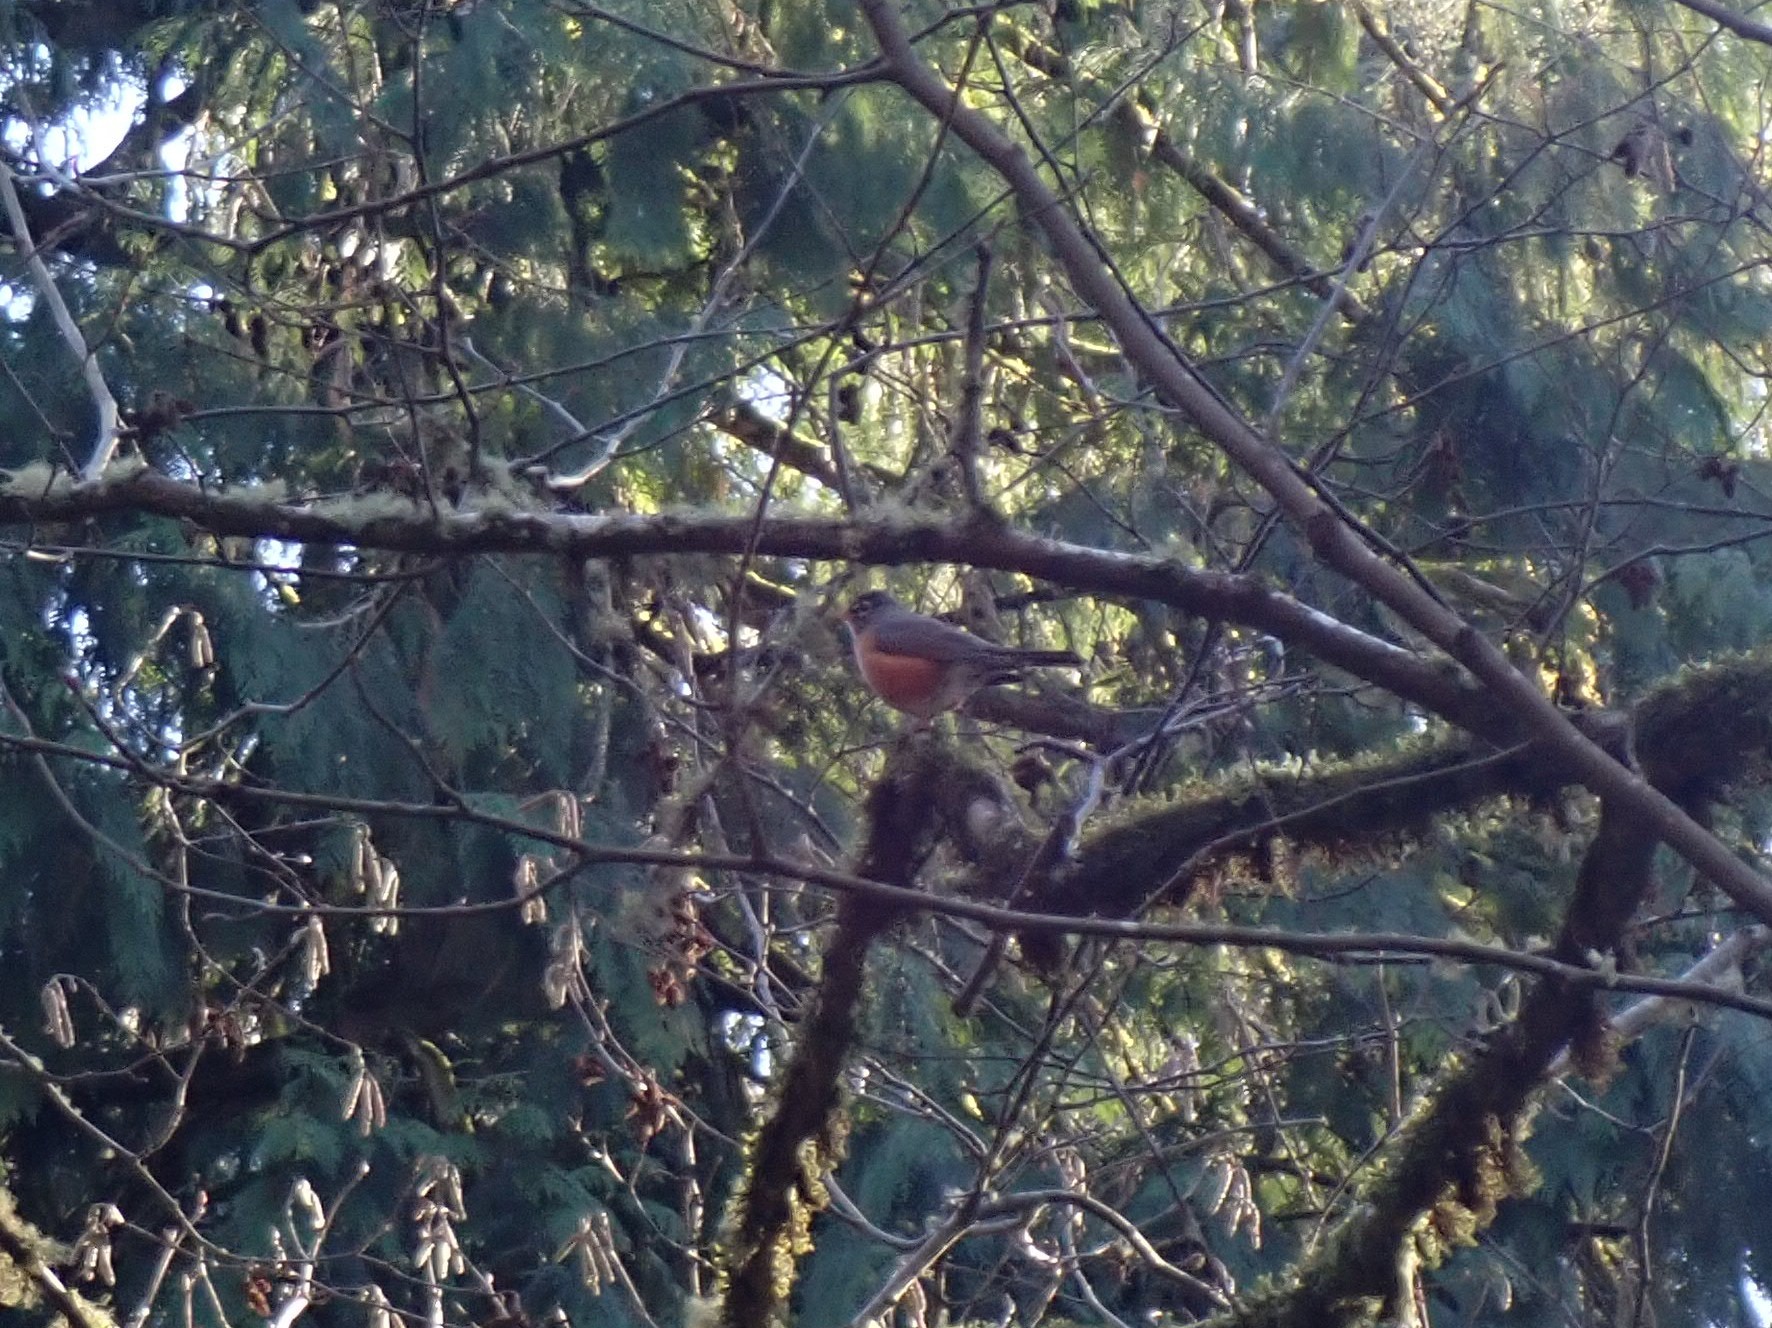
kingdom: Animalia
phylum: Chordata
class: Aves
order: Passeriformes
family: Turdidae
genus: Turdus
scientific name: Turdus migratorius
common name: American robin
